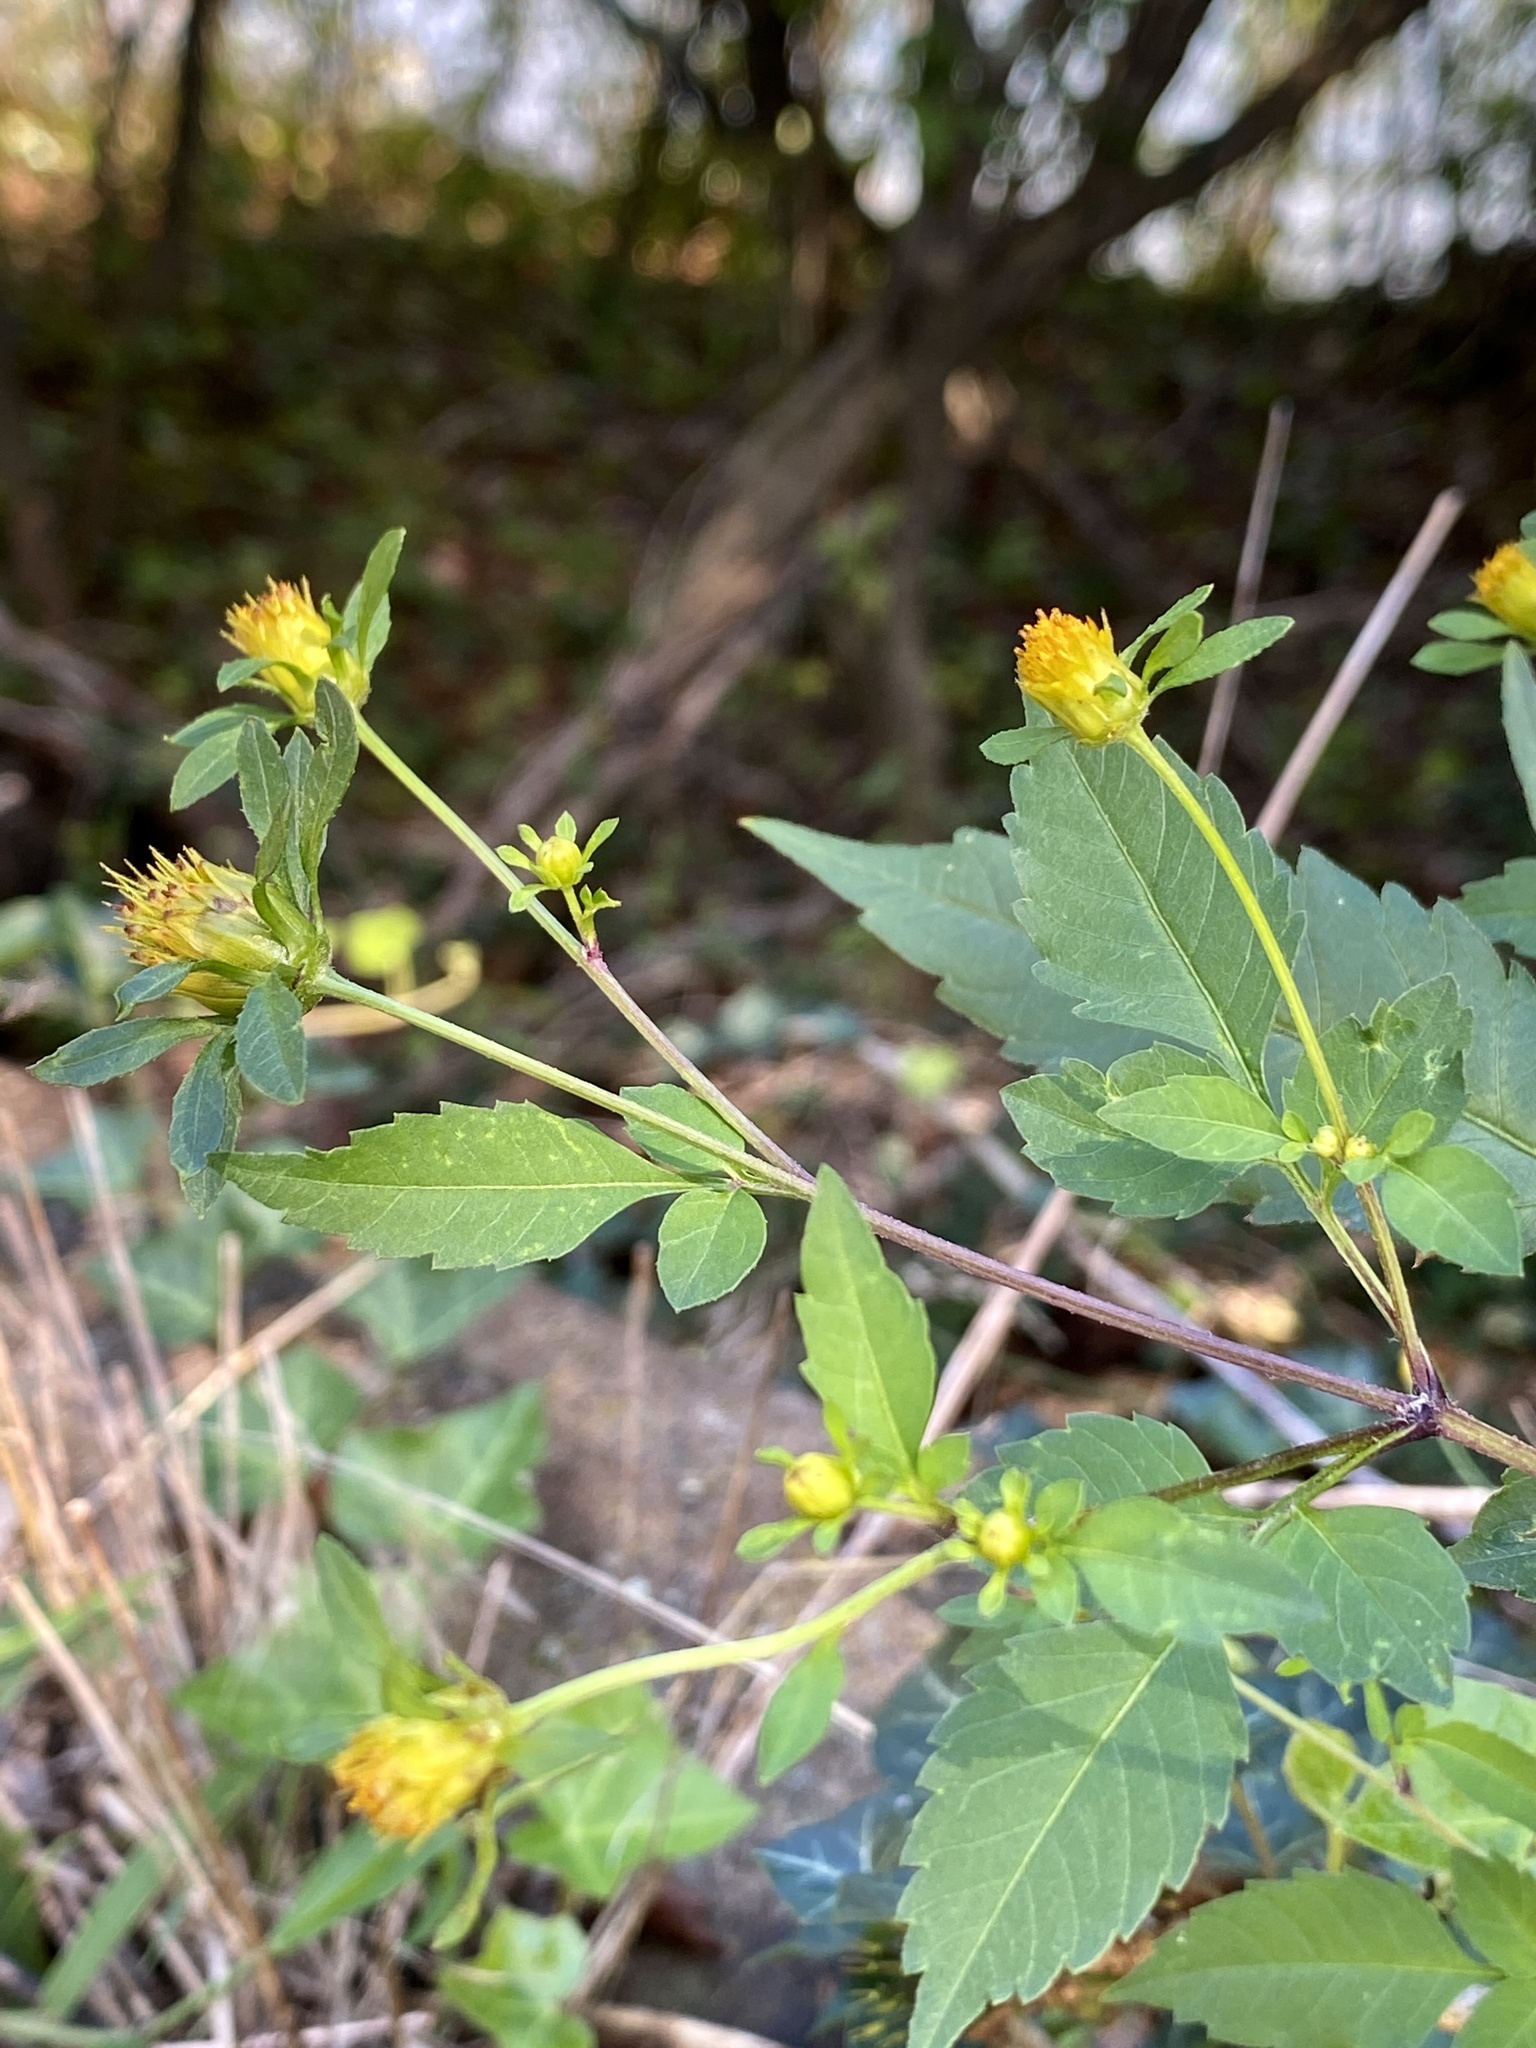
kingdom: Plantae
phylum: Tracheophyta
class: Magnoliopsida
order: Asterales
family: Asteraceae
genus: Bidens
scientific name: Bidens frondosa
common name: Beggarticks
